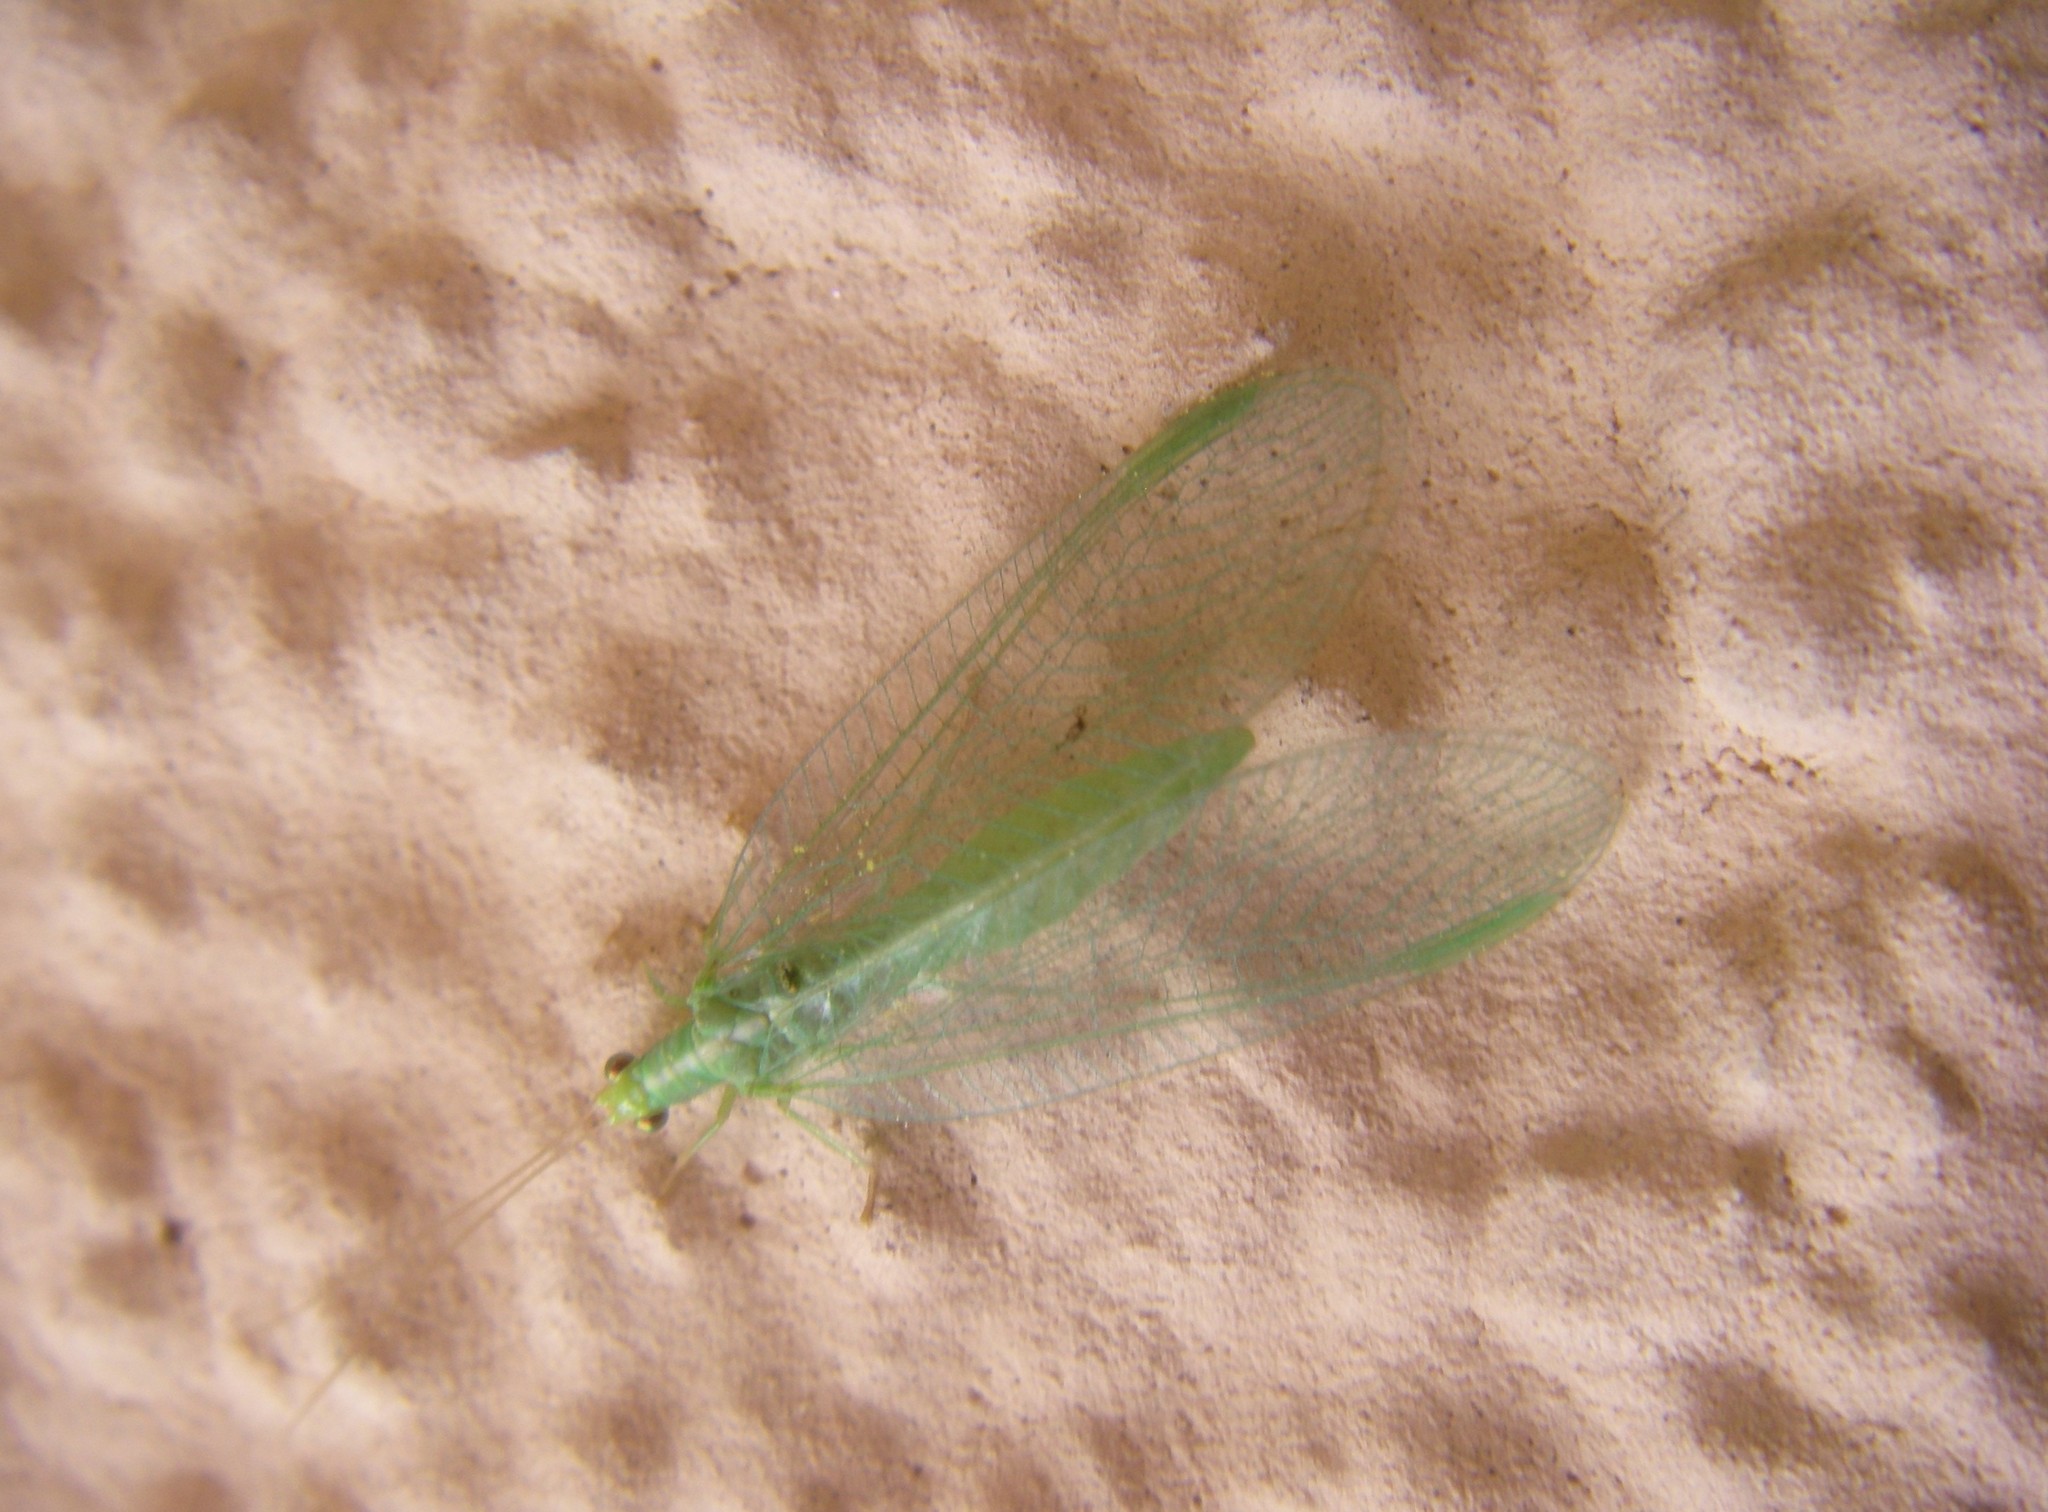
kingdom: Animalia
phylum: Arthropoda
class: Insecta
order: Neuroptera
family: Chrysopidae
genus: Chrysoperla
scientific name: Chrysoperla
